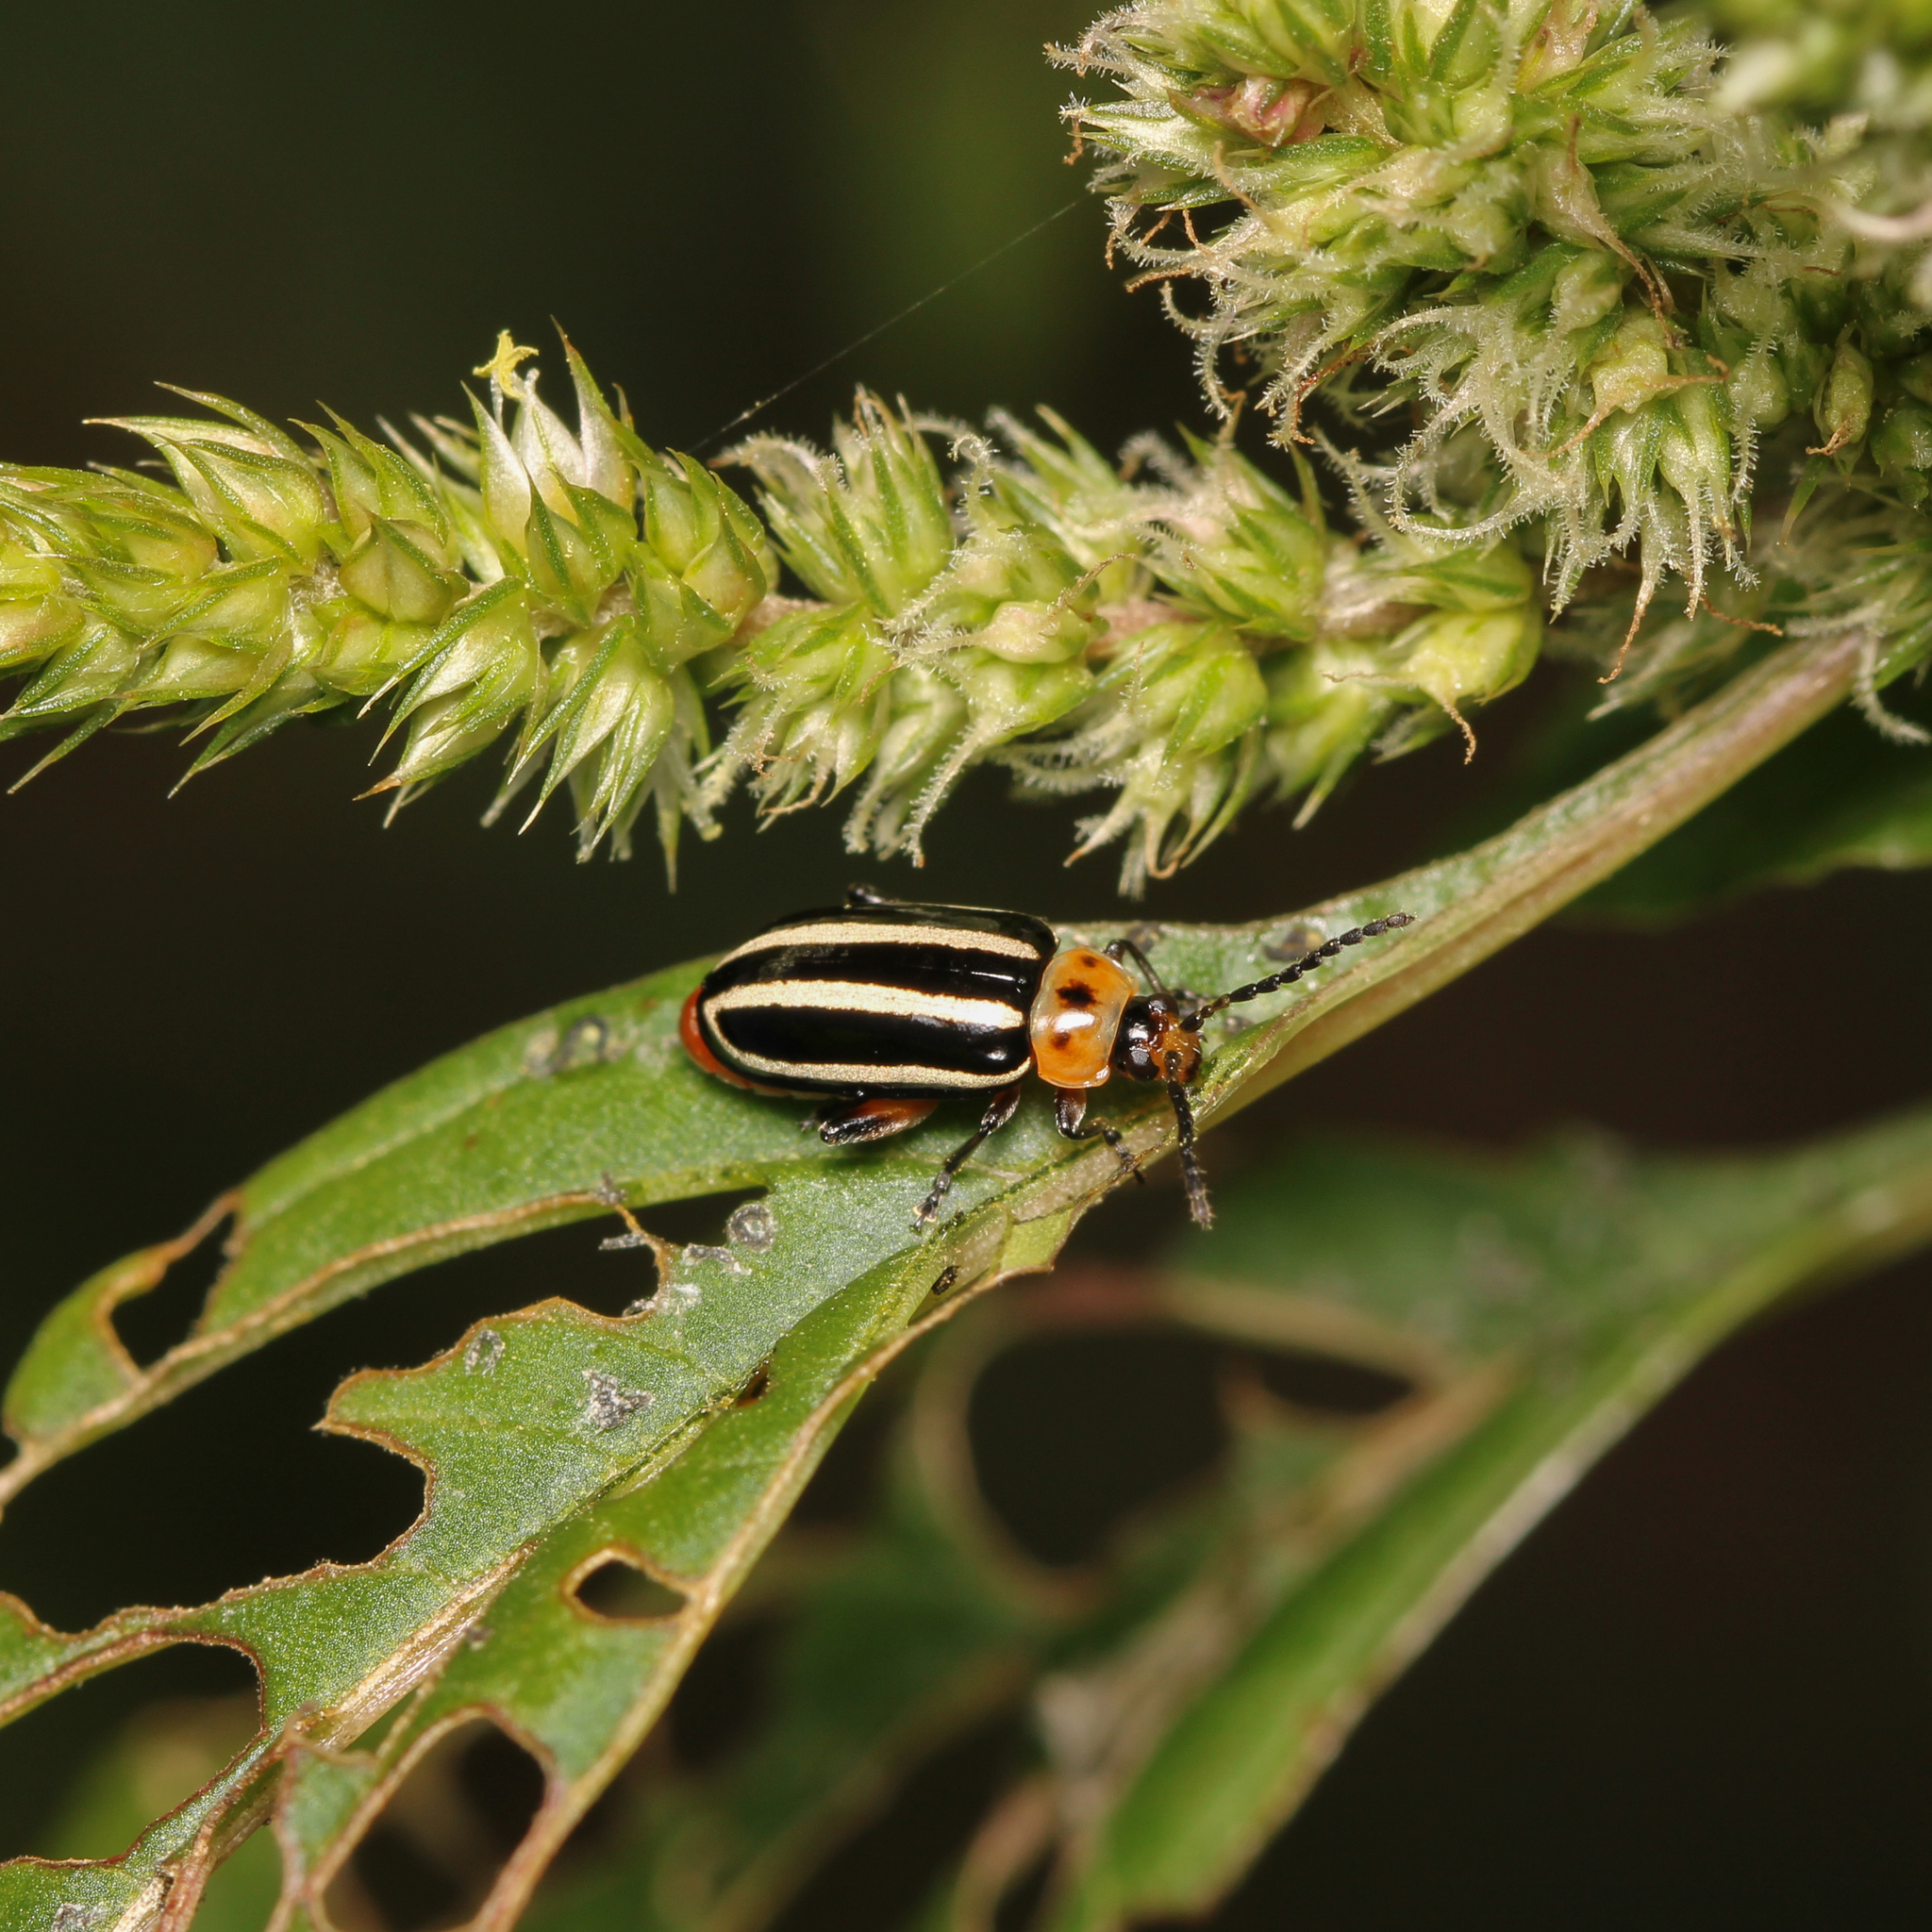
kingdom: Animalia
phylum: Arthropoda
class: Insecta
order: Coleoptera
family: Chrysomelidae
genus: Disonycha
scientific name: Disonycha glabrata
